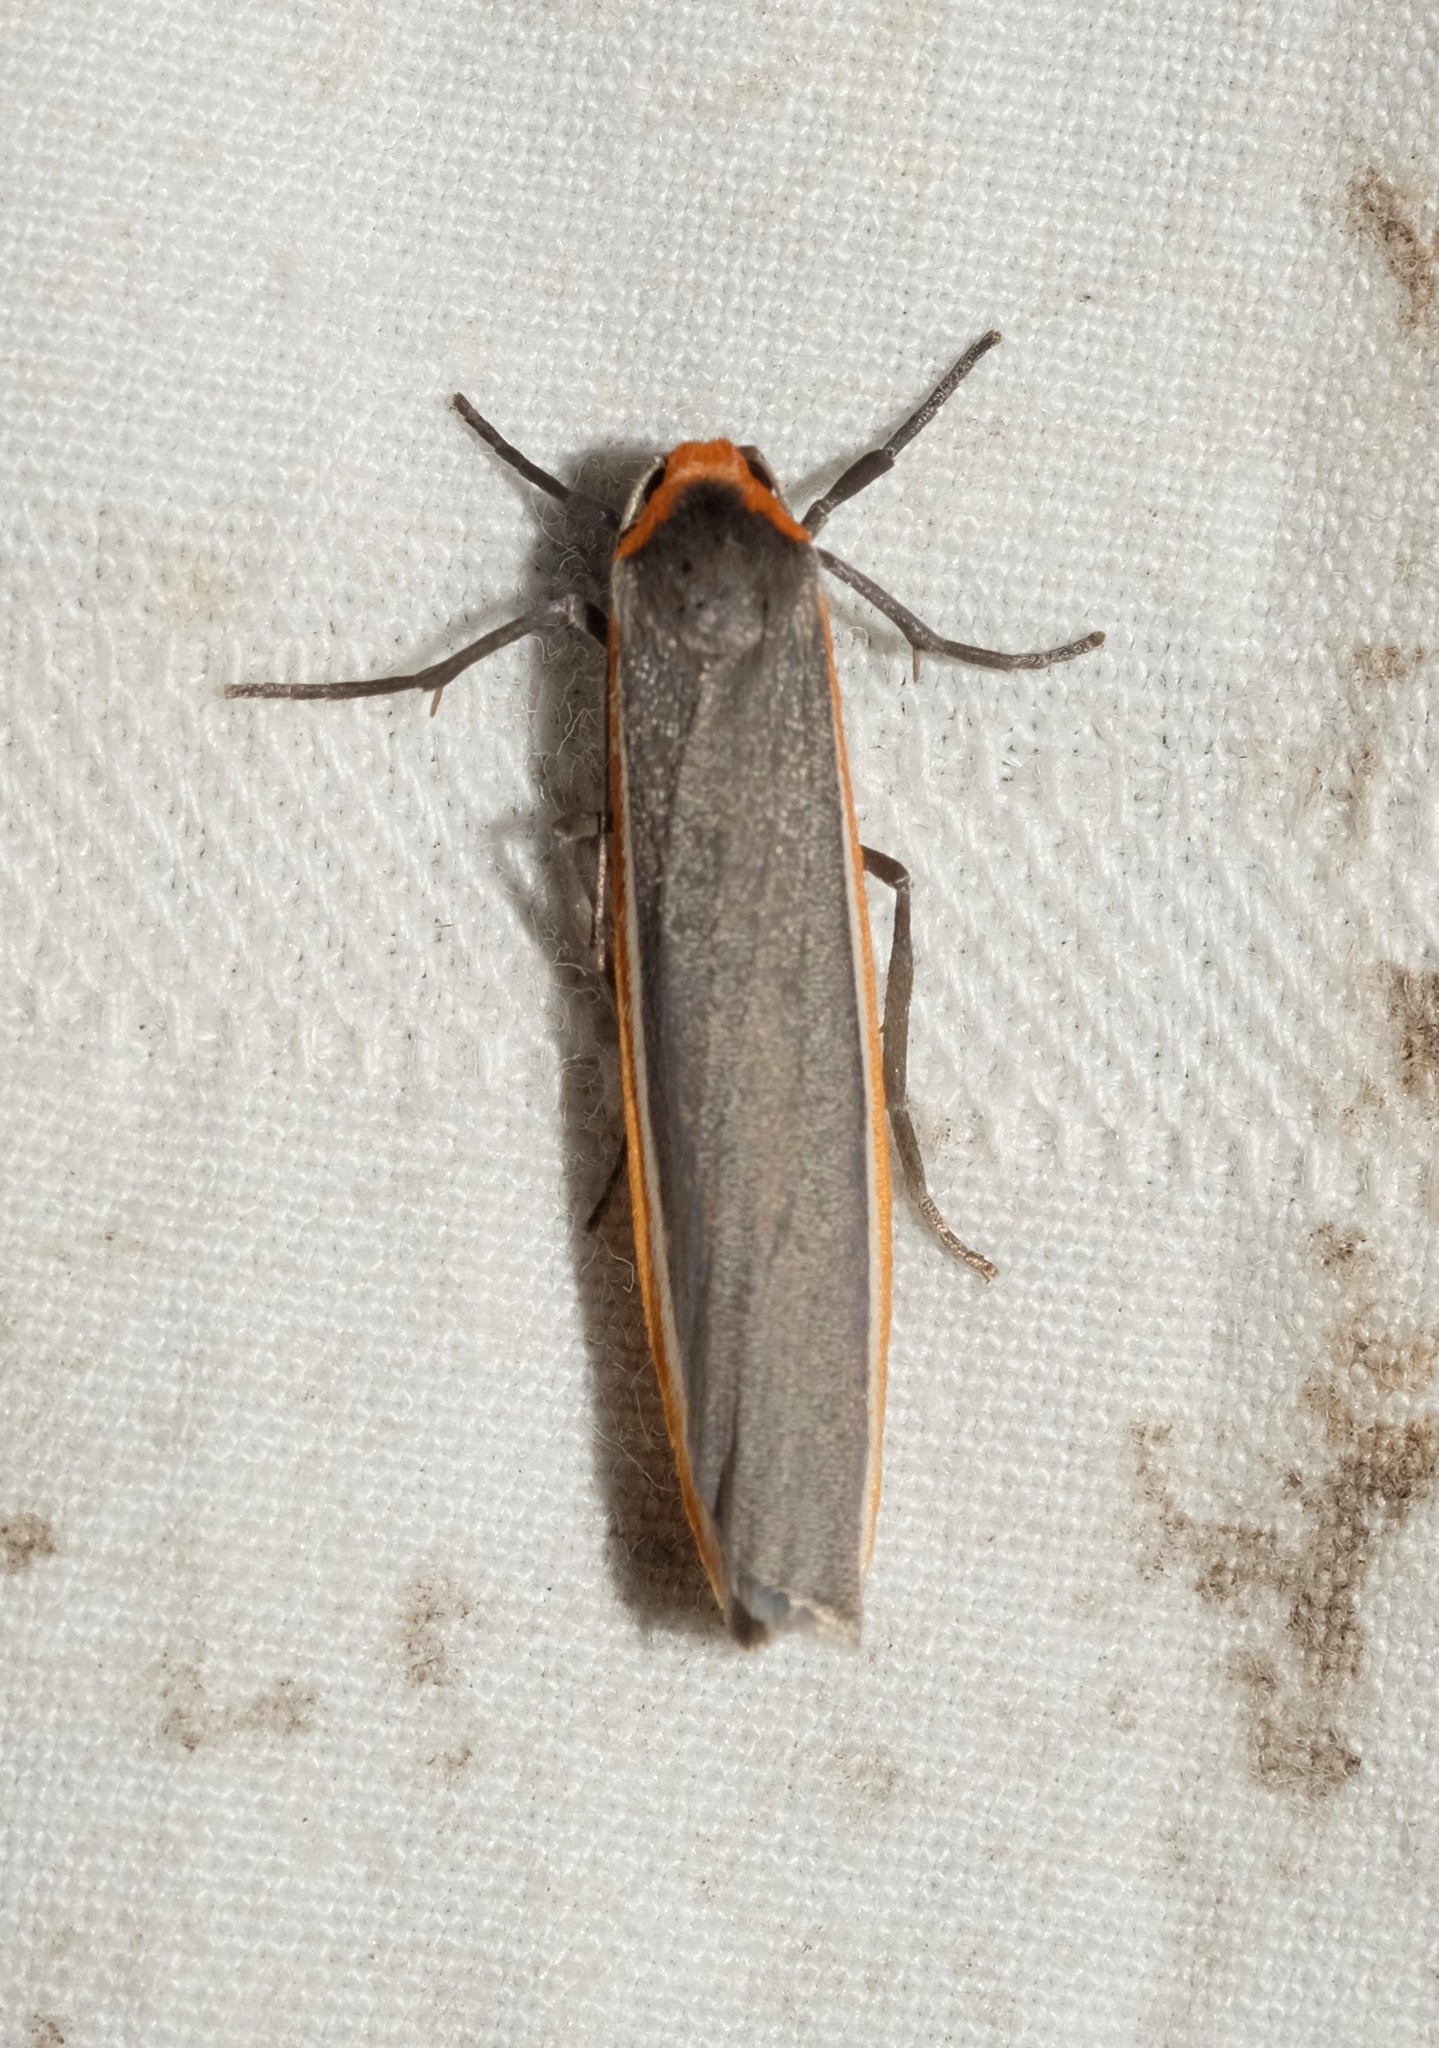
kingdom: Animalia
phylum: Arthropoda
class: Insecta
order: Lepidoptera
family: Erebidae
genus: Palaeosia
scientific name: Palaeosia bicosta
